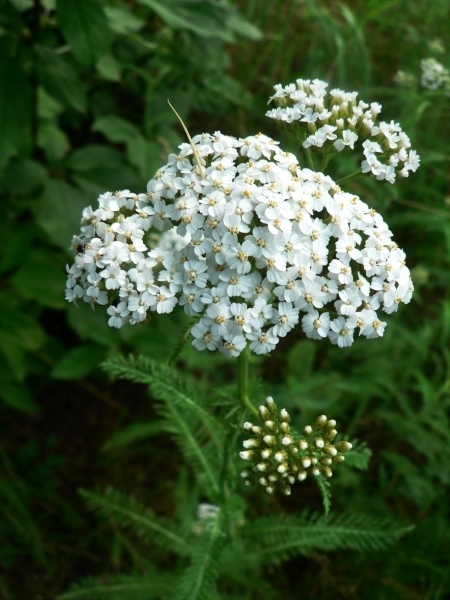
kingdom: Plantae
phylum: Tracheophyta
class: Magnoliopsida
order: Asterales
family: Asteraceae
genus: Achillea
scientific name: Achillea millefolium
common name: Yarrow
